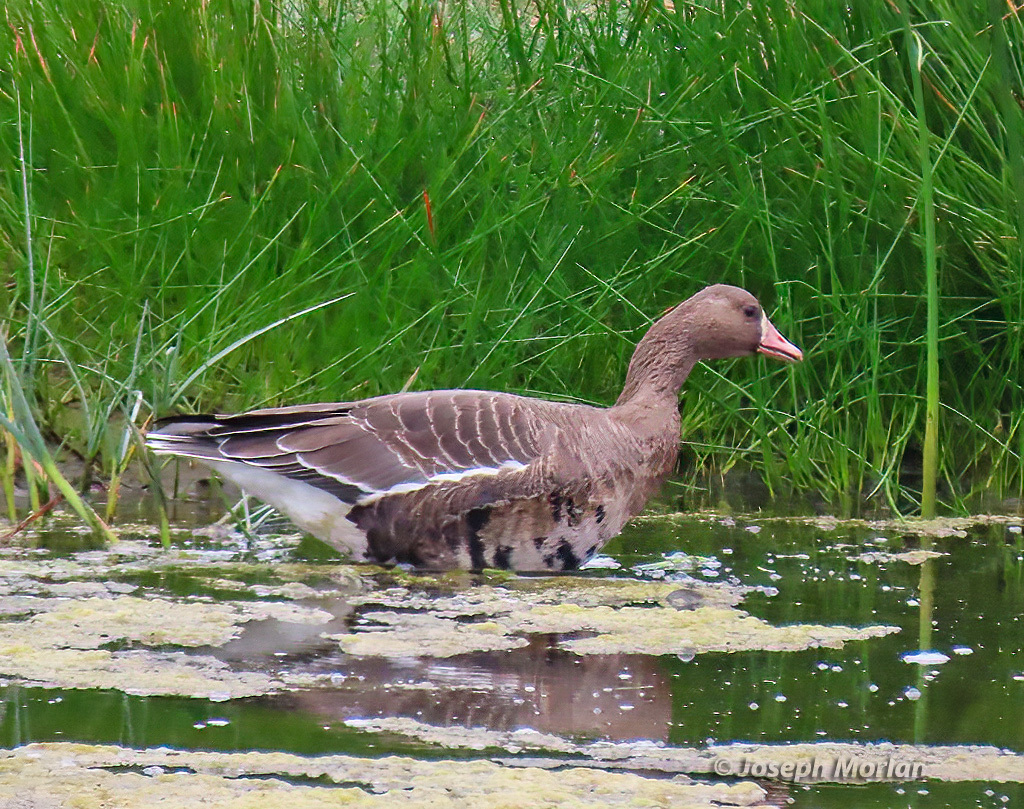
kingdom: Animalia
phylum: Chordata
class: Aves
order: Anseriformes
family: Anatidae
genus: Anser
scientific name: Anser albifrons
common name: Greater white-fronted goose
